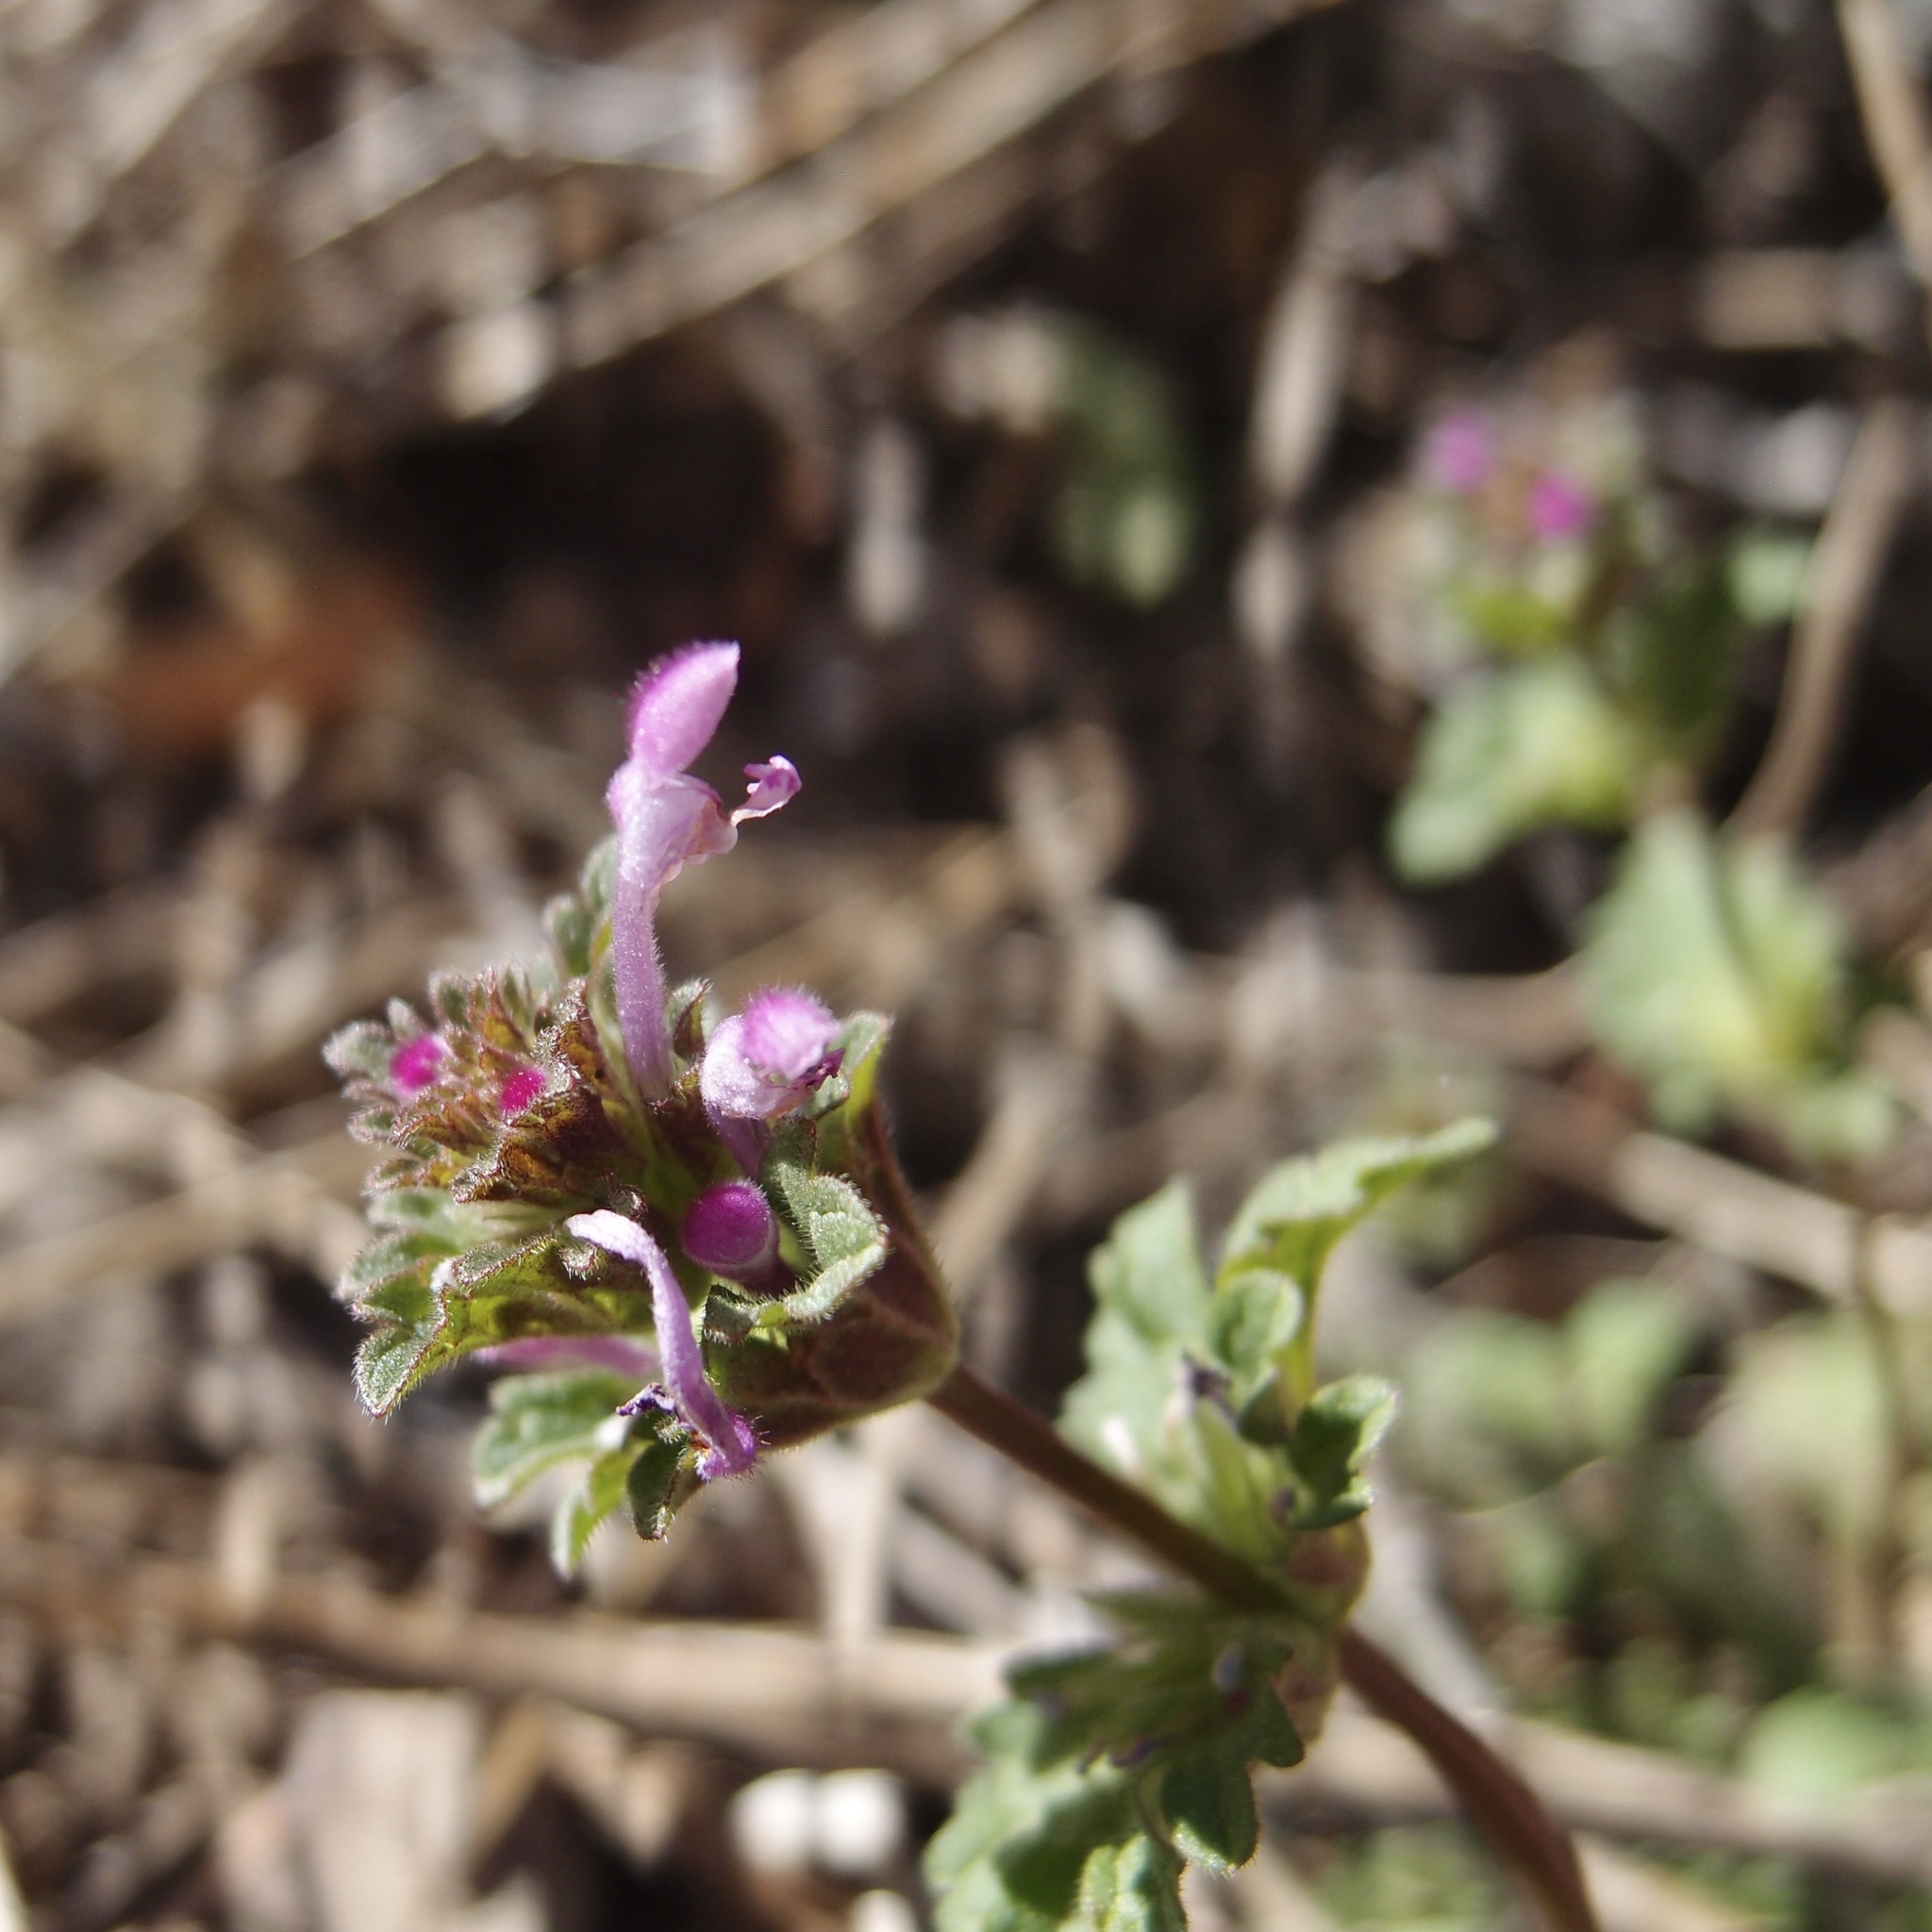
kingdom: Plantae
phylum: Tracheophyta
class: Magnoliopsida
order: Lamiales
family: Lamiaceae
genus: Lamium
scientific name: Lamium amplexicaule
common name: Henbit dead-nettle
